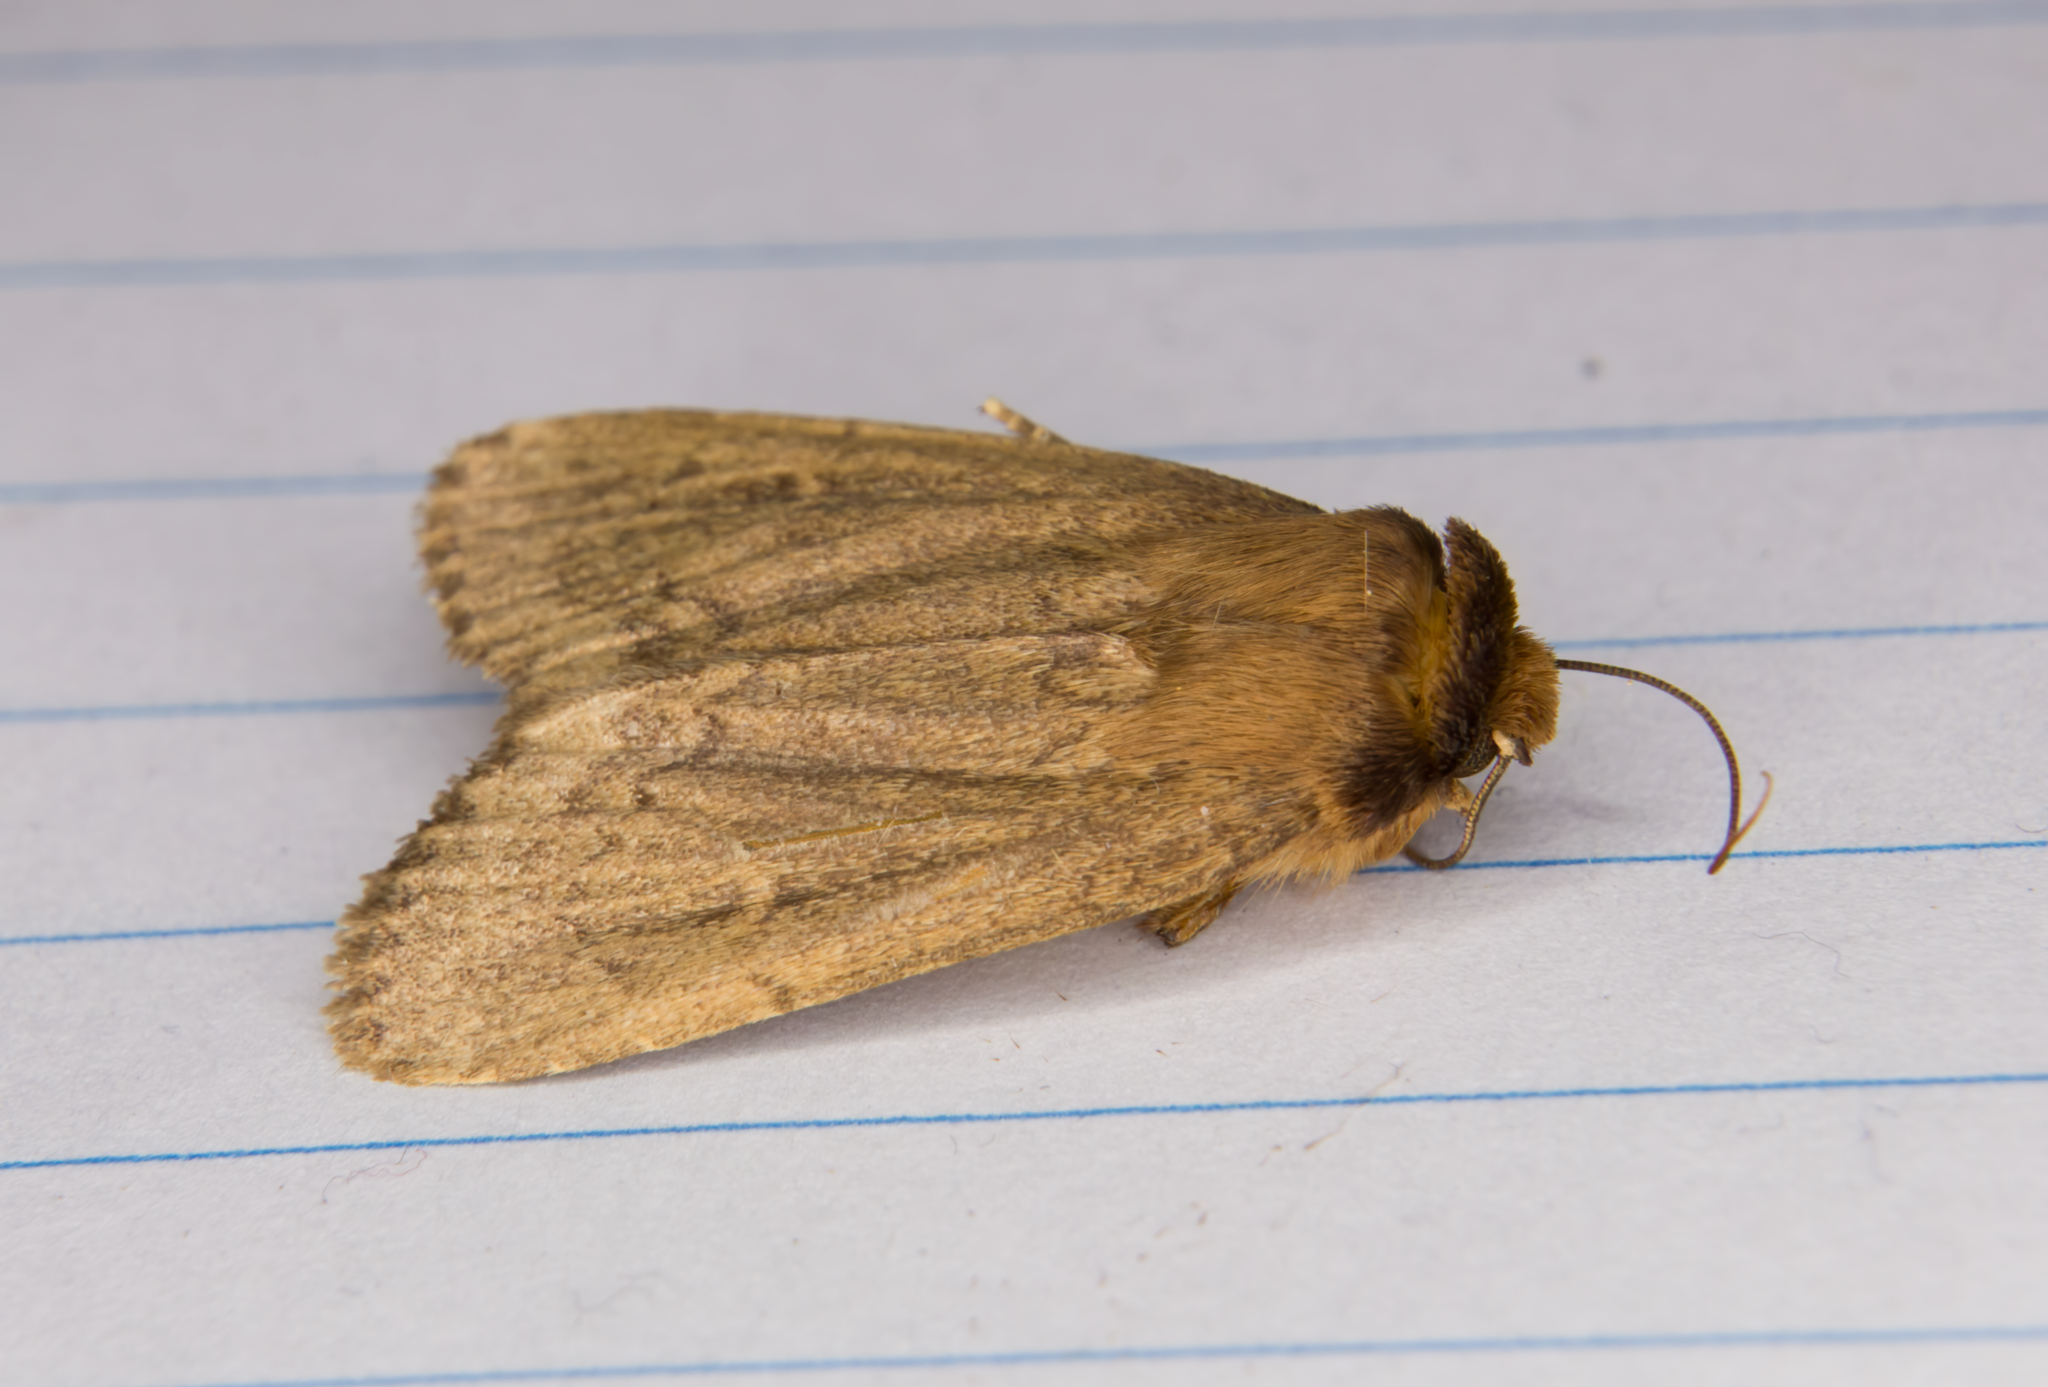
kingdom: Animalia
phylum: Arthropoda
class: Insecta
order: Lepidoptera
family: Noctuidae
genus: Bityla
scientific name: Bityla defigurata
